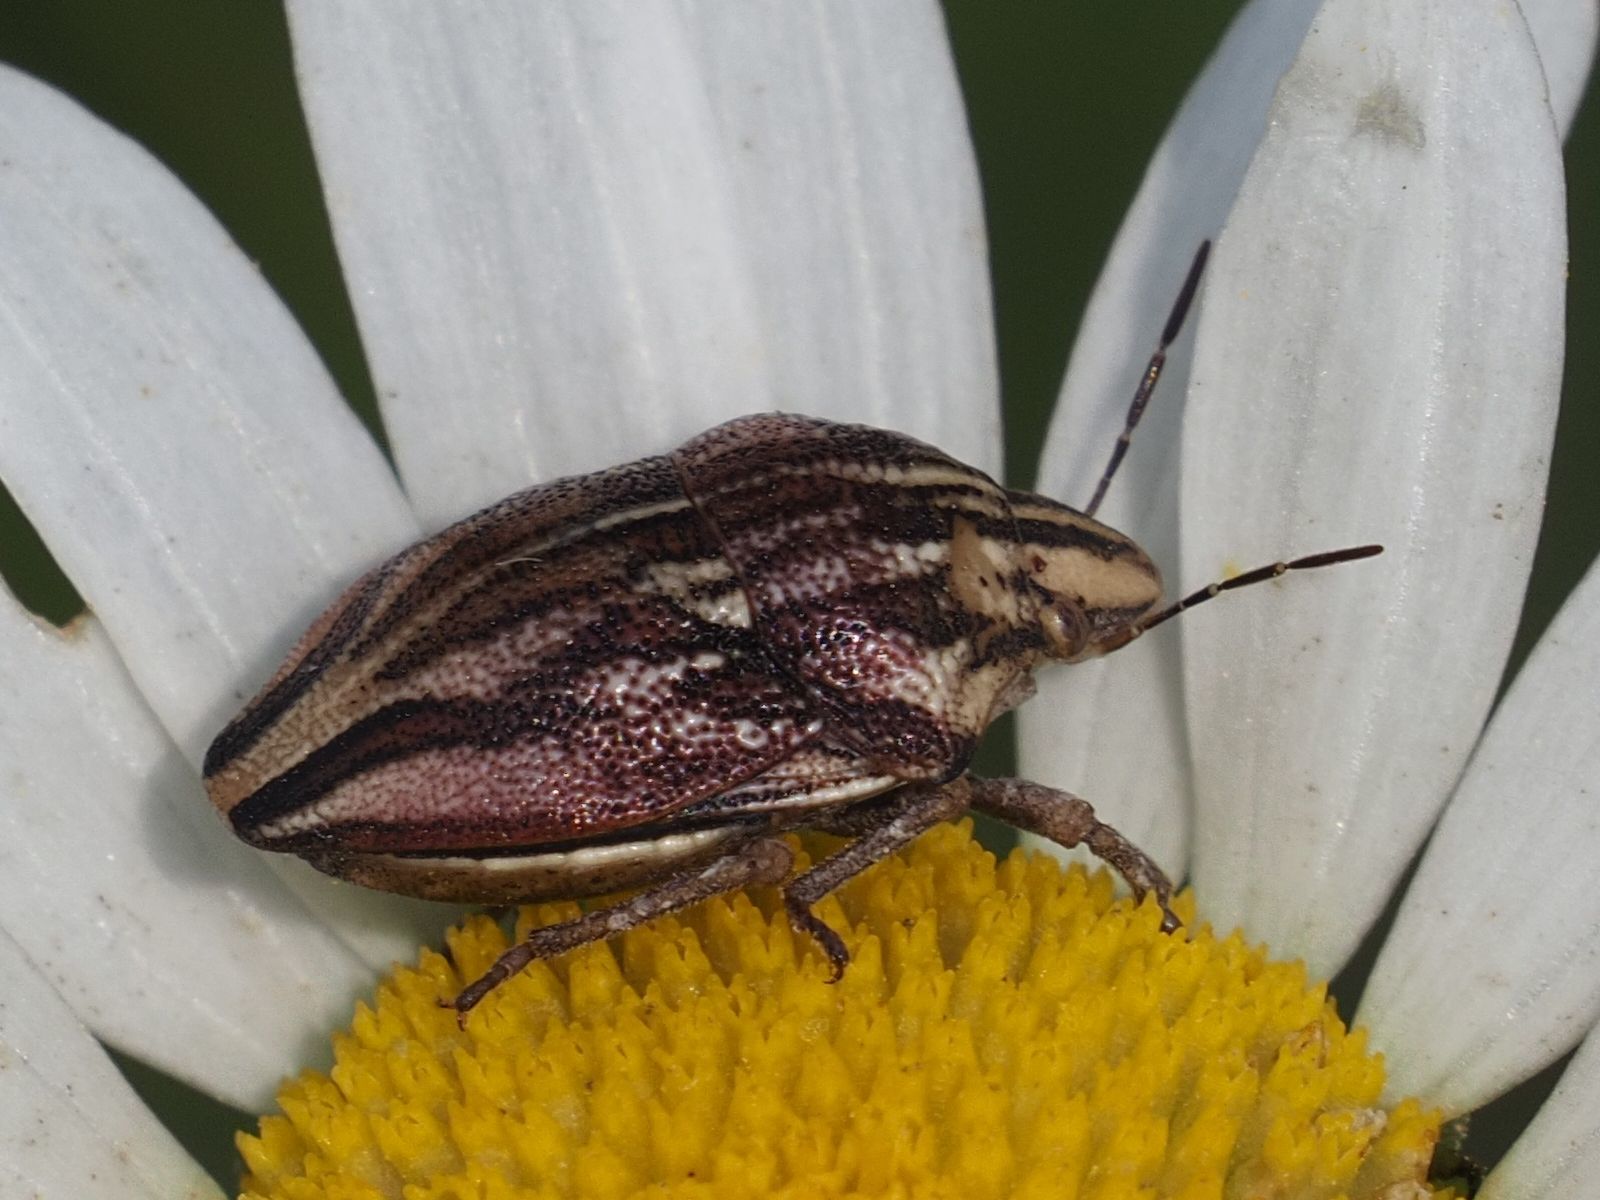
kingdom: Animalia
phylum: Arthropoda
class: Insecta
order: Hemiptera
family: Scutelleridae
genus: Odontotarsus
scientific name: Odontotarsus purpureolineatus
